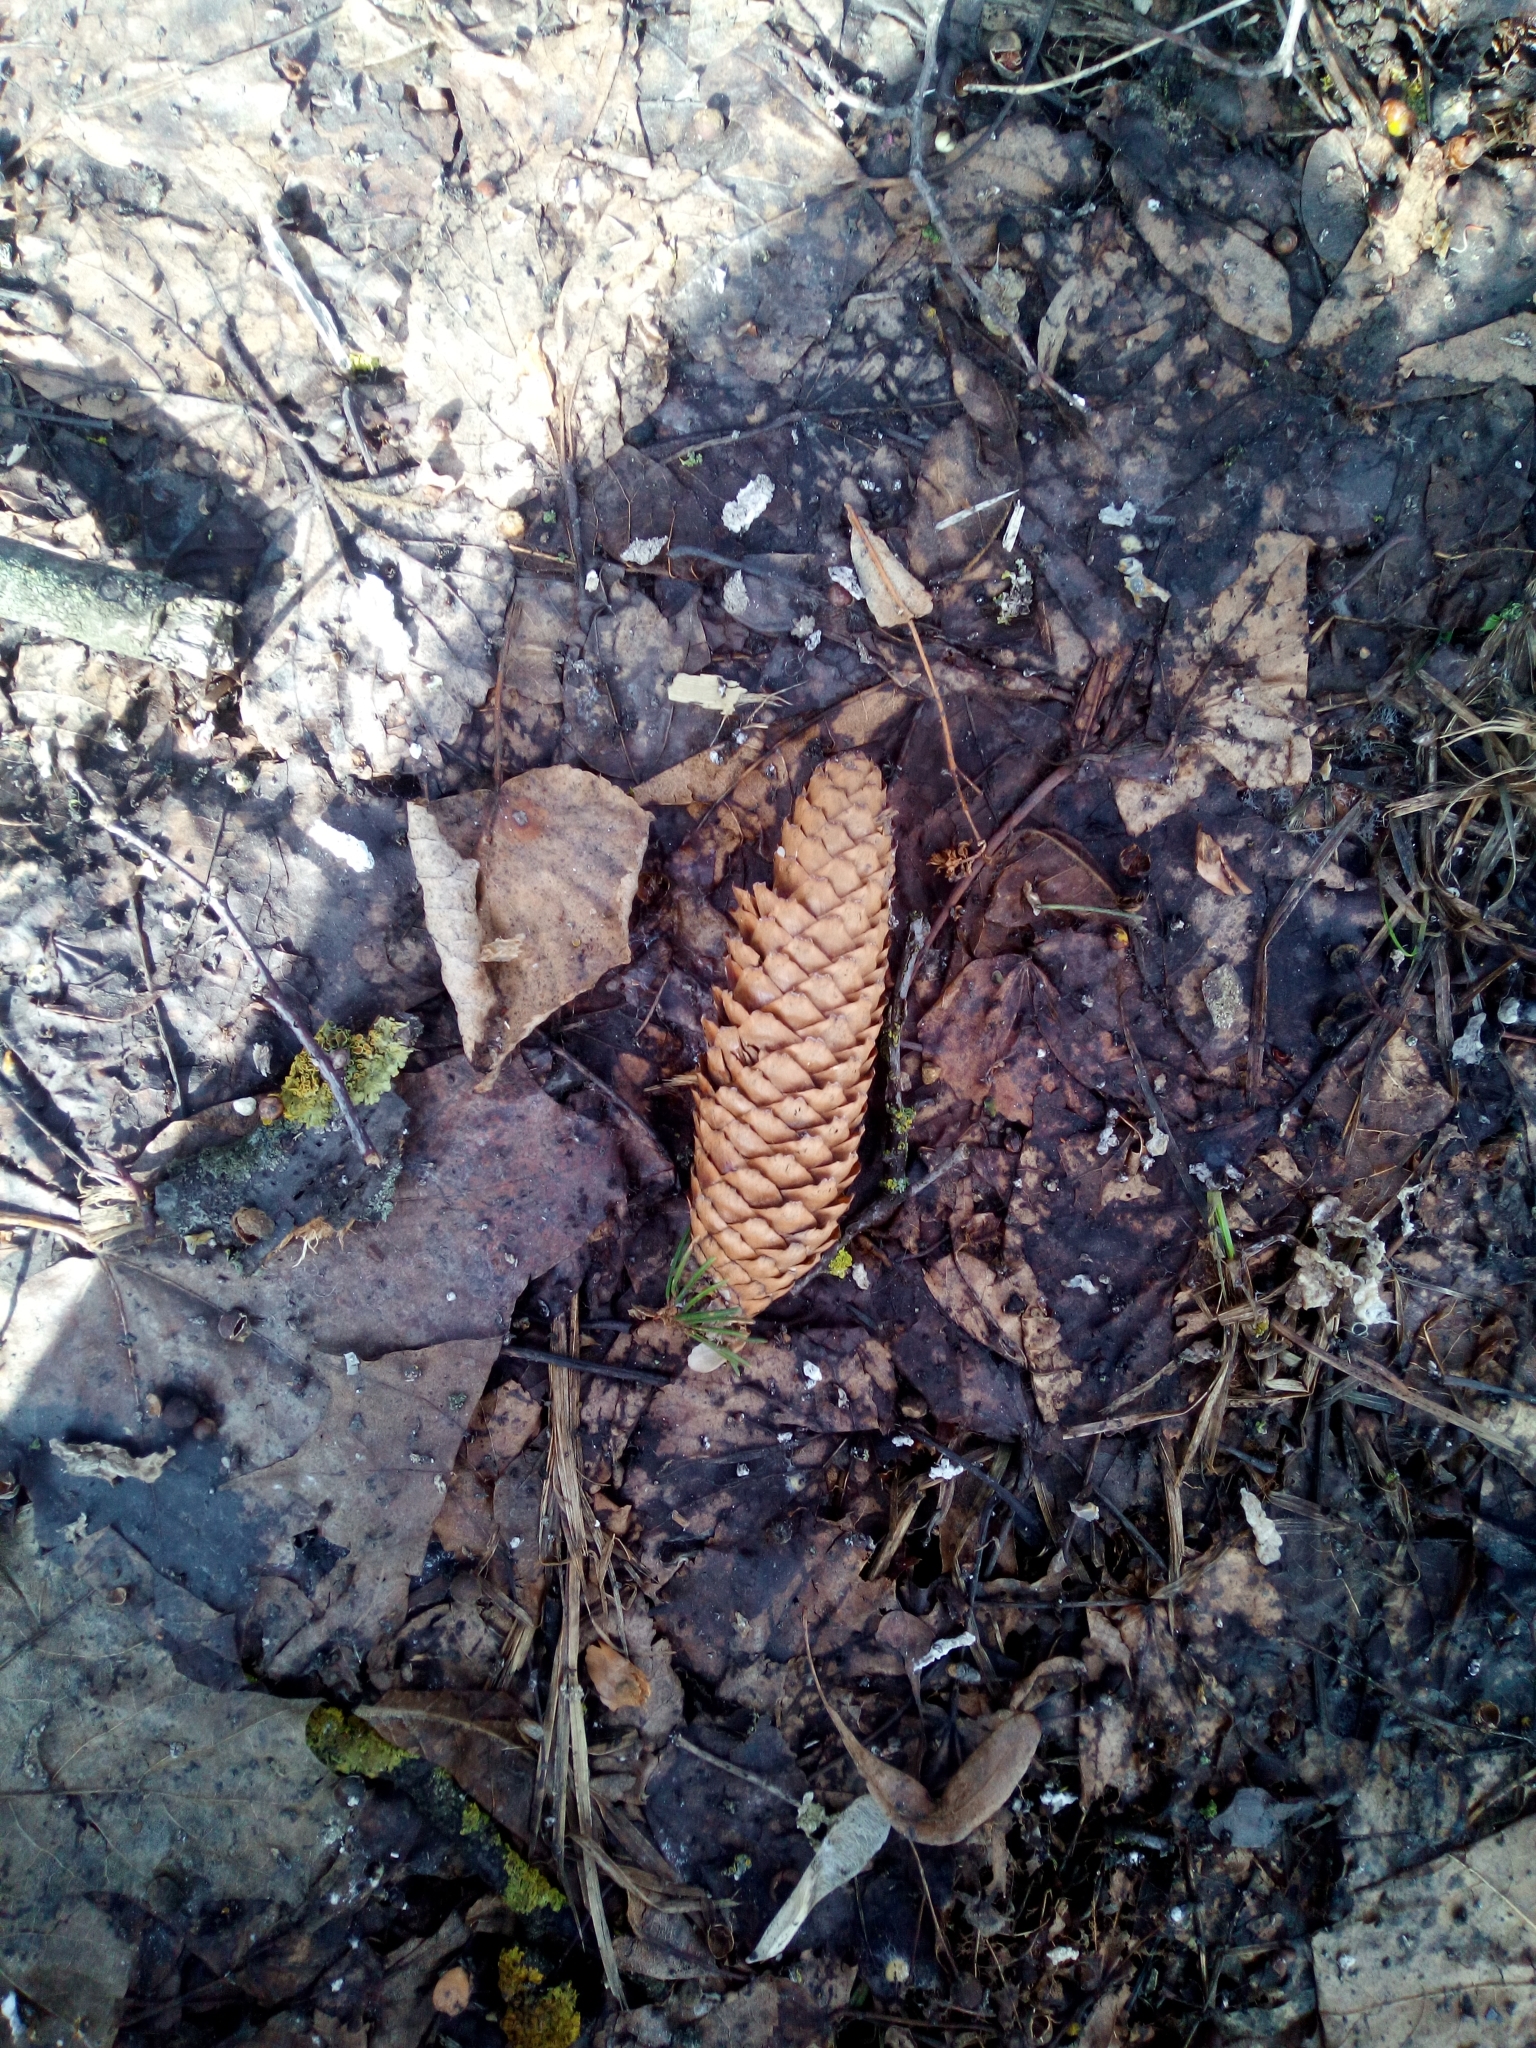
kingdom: Animalia
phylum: Chordata
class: Aves
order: Passeriformes
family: Fringillidae
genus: Loxia
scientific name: Loxia curvirostra
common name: Red crossbill
